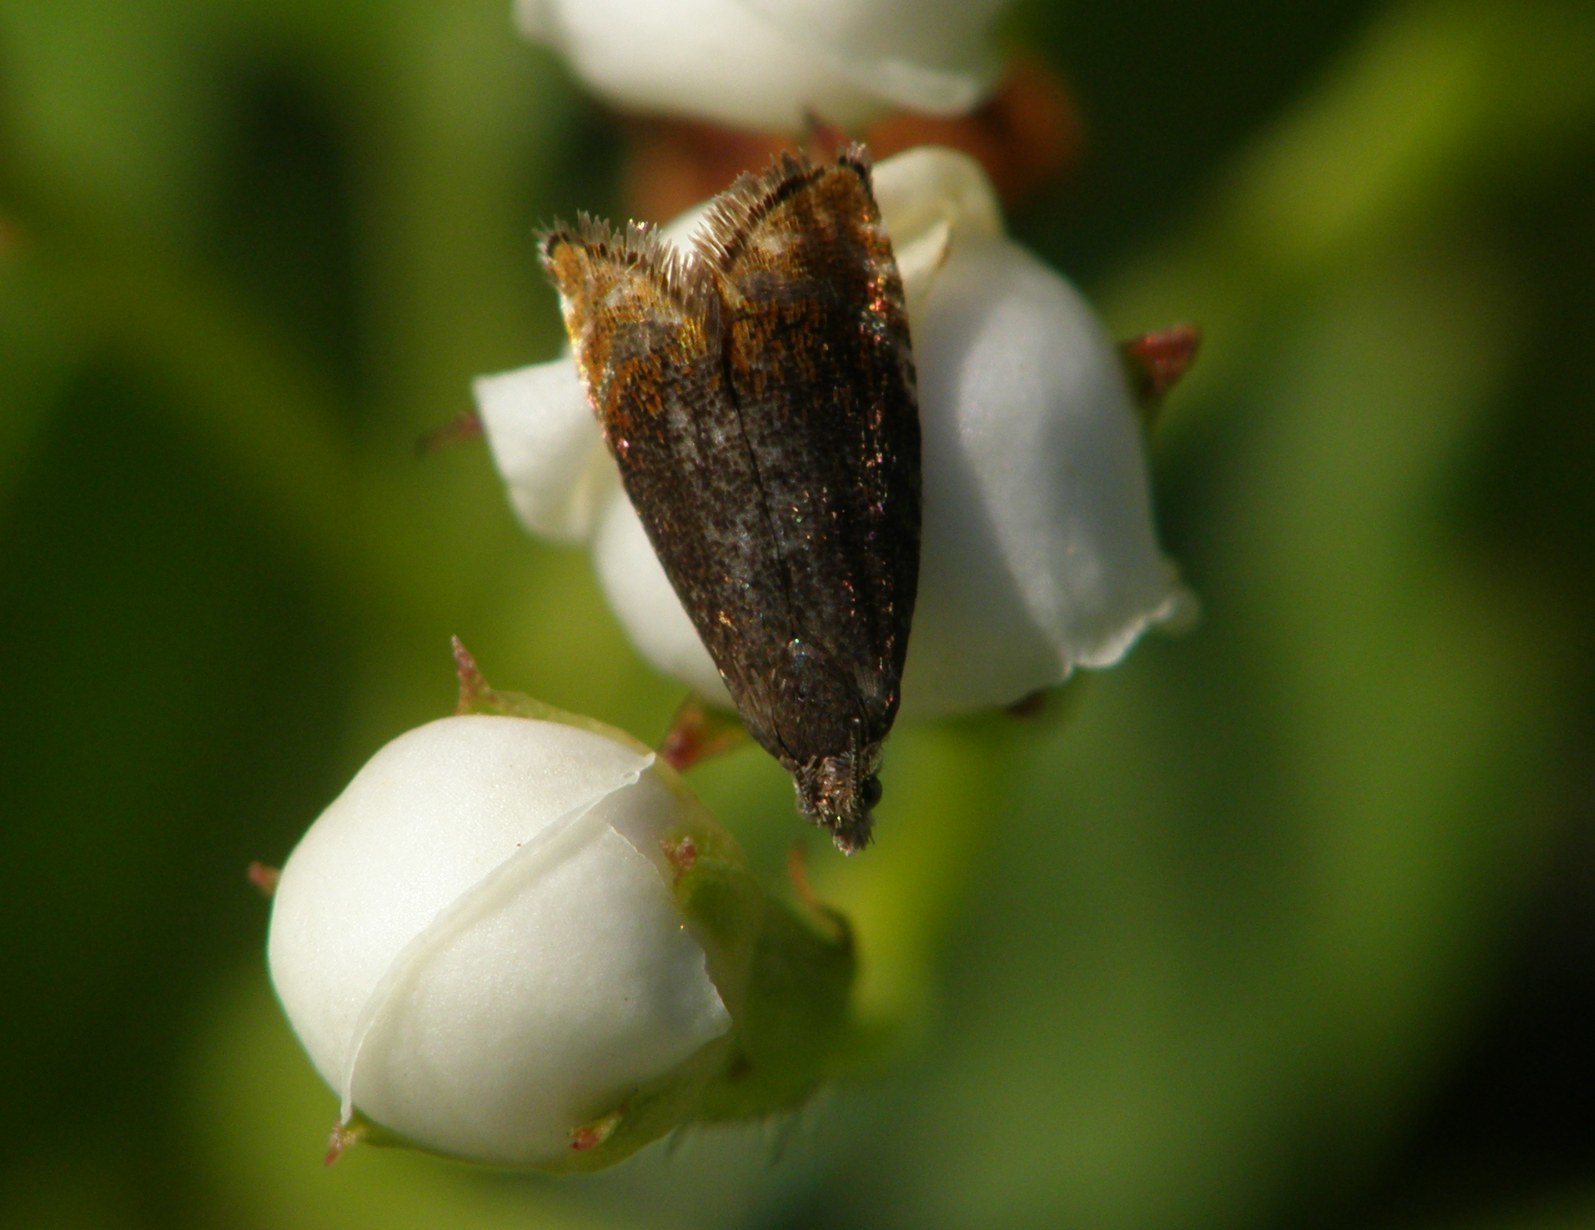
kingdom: Animalia
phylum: Arthropoda
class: Insecta
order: Lepidoptera
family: Tortricidae
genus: Pammene
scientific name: Pammene rhediella
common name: Fruitlet-mining tortrix
